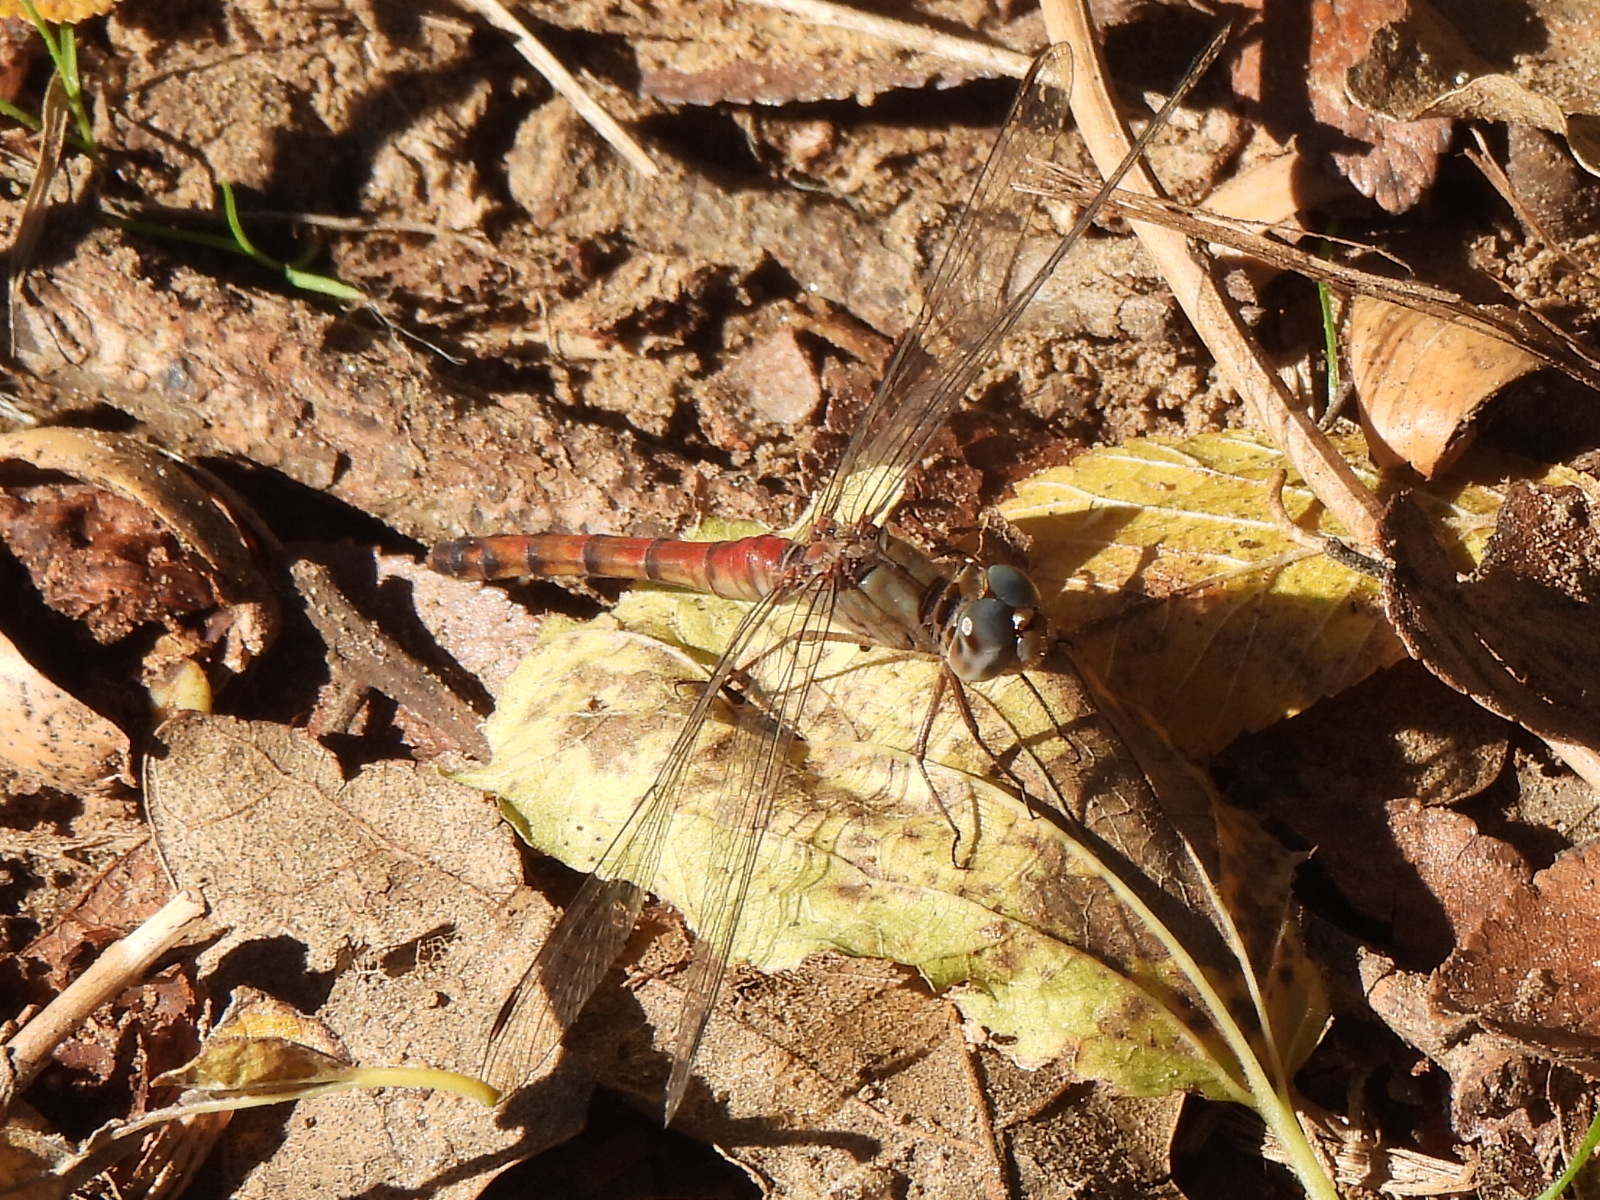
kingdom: Animalia
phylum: Arthropoda
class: Insecta
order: Odonata
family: Libellulidae
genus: Sympetrum
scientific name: Sympetrum ambiguum
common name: Blue-faced meadowhawk
